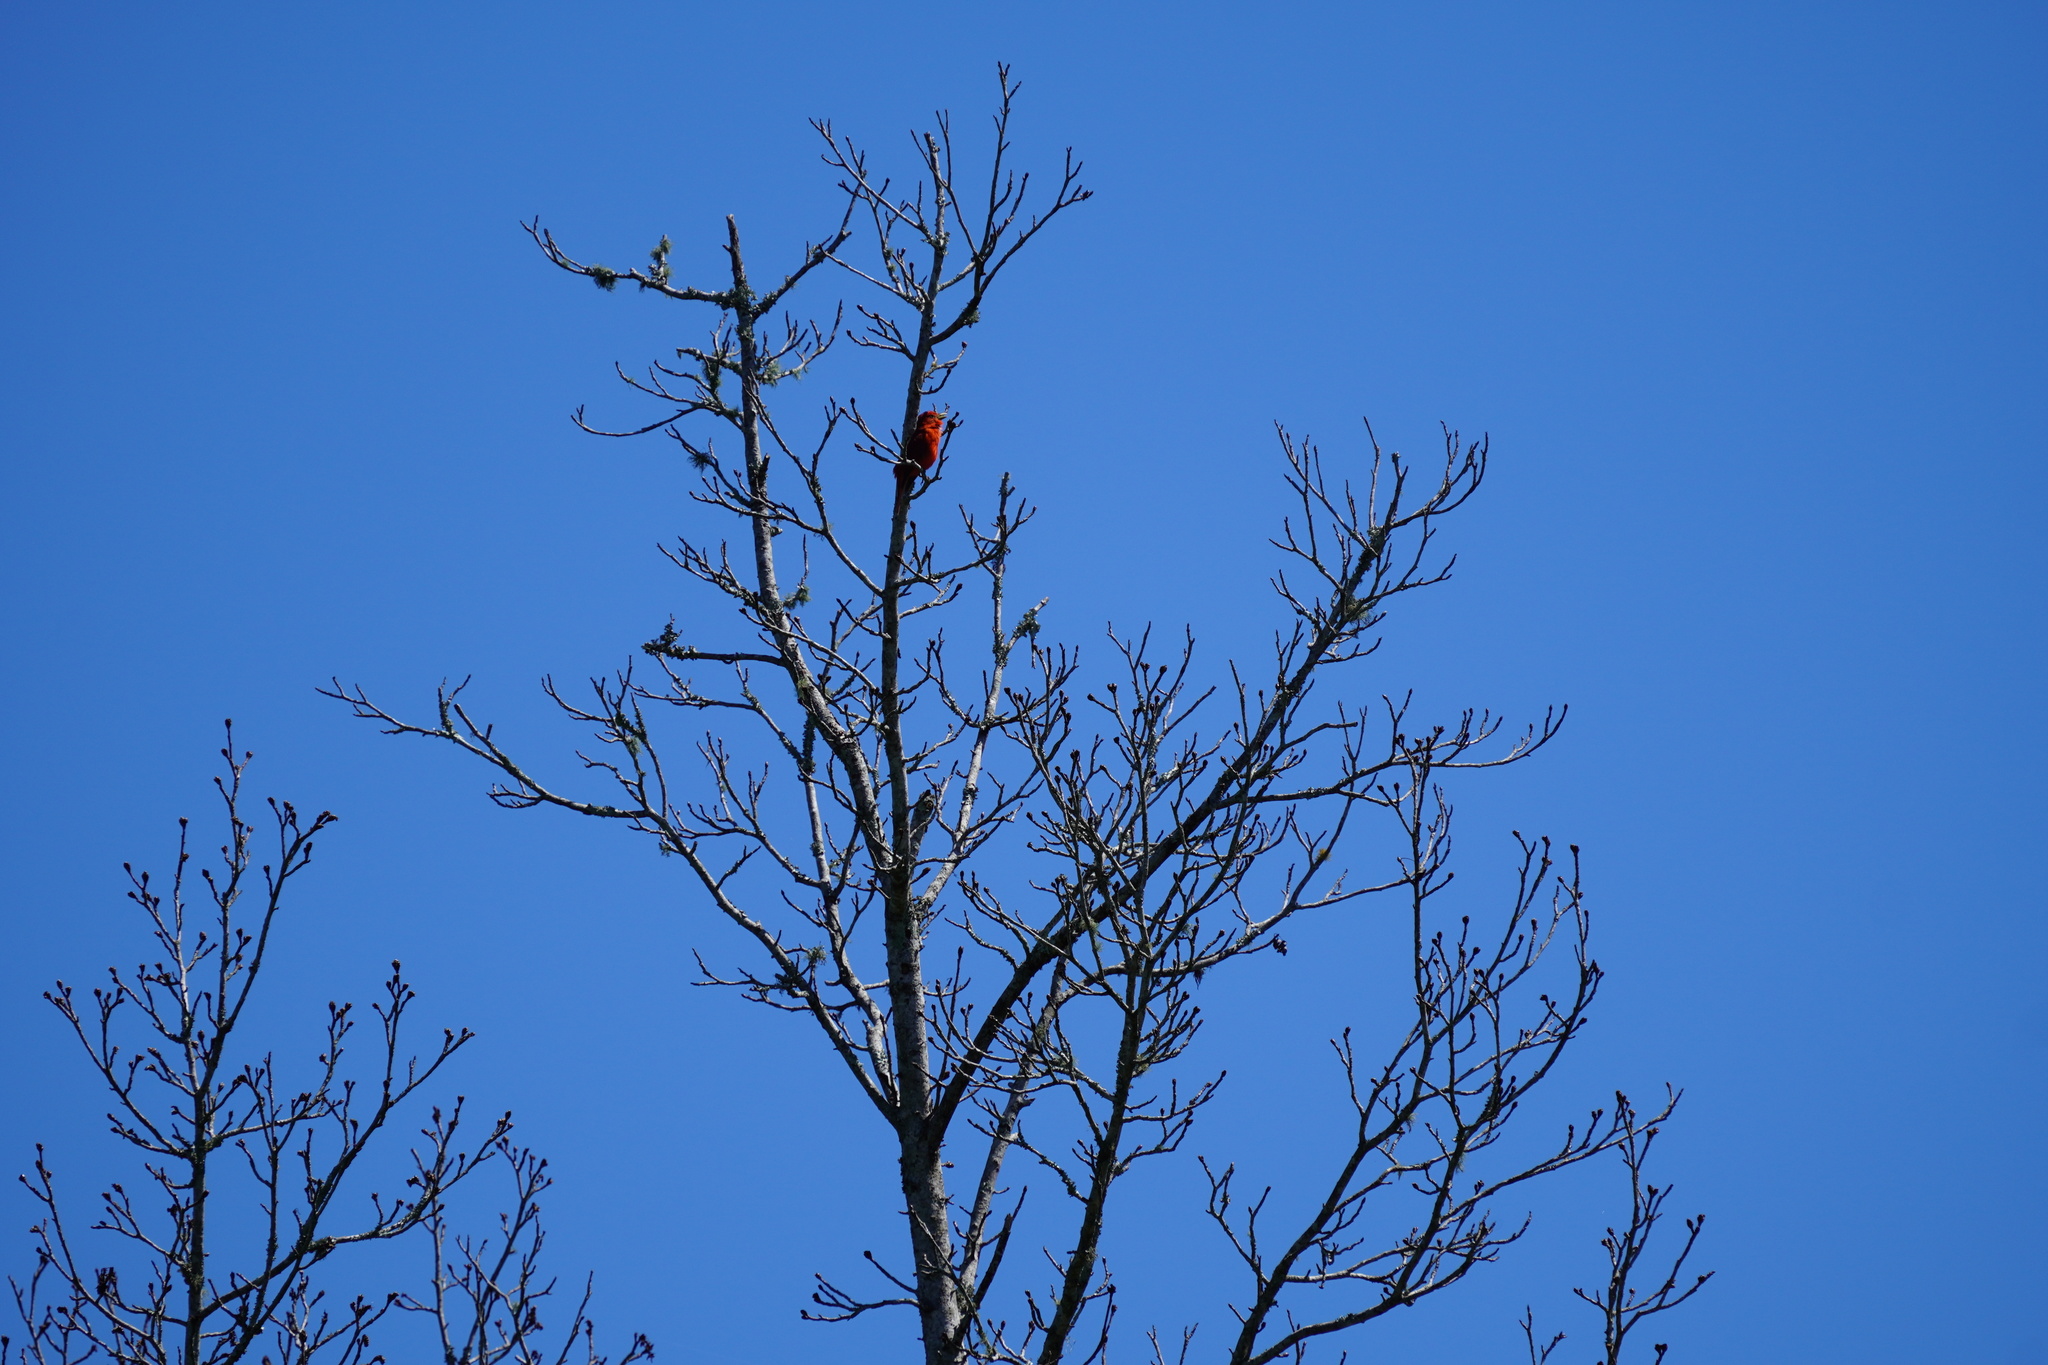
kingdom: Animalia
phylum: Chordata
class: Aves
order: Passeriformes
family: Cardinalidae
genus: Piranga
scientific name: Piranga rubra
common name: Summer tanager
